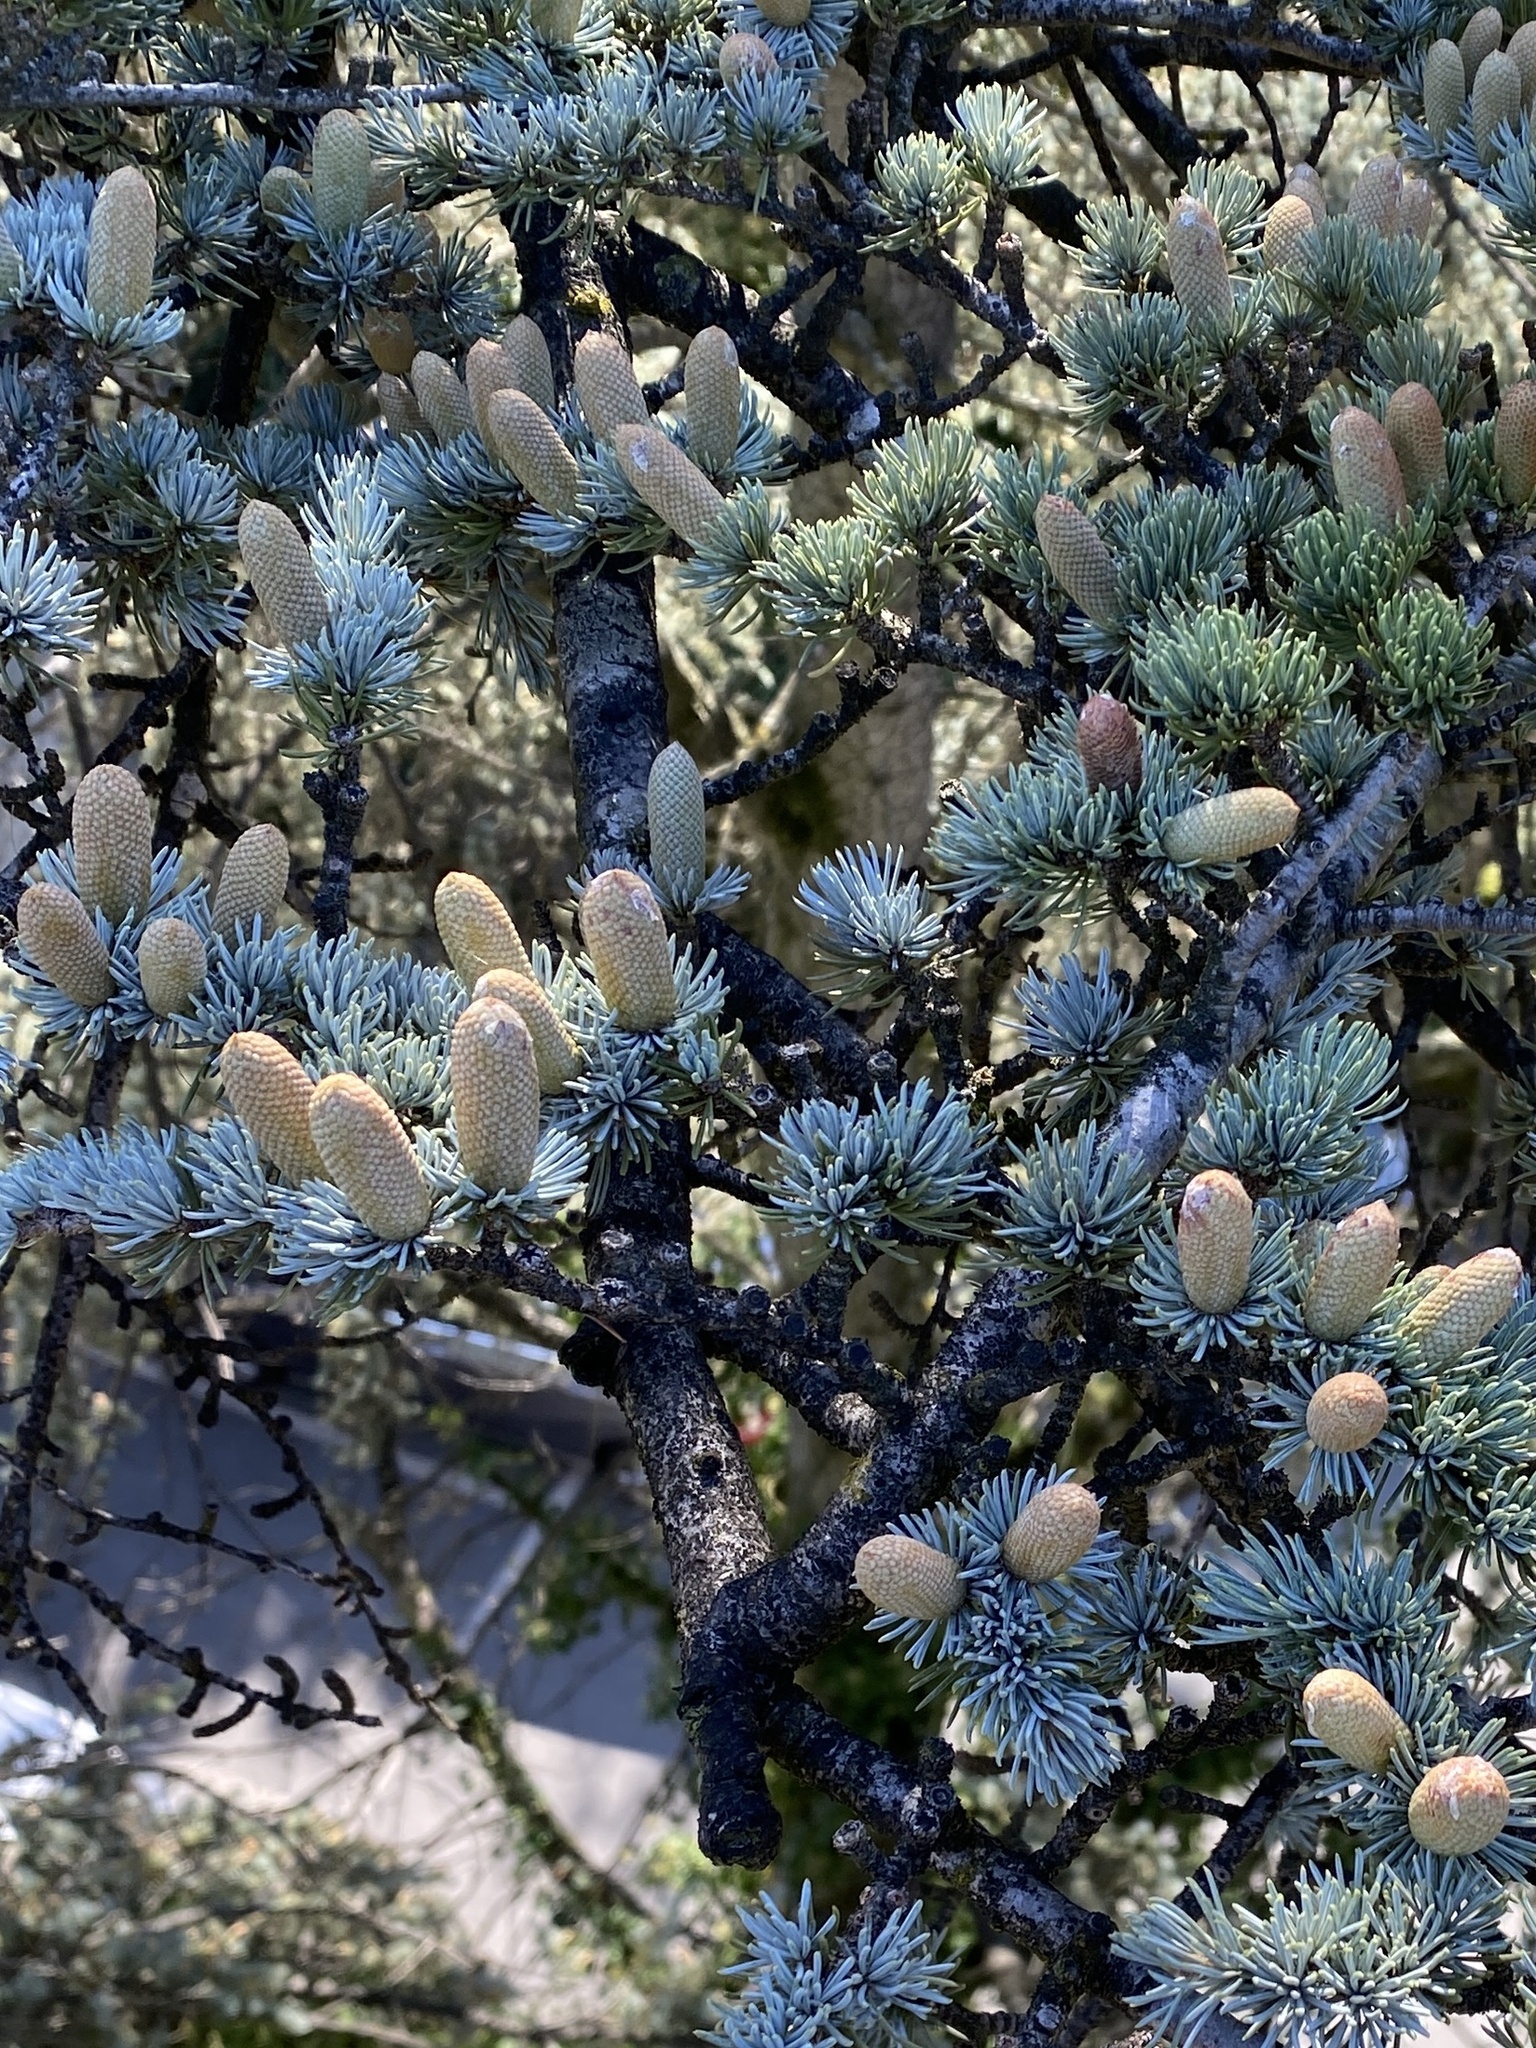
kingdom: Plantae
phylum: Tracheophyta
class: Pinopsida
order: Pinales
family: Pinaceae
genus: Cedrus
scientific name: Cedrus atlantica
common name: Atlas cedar
